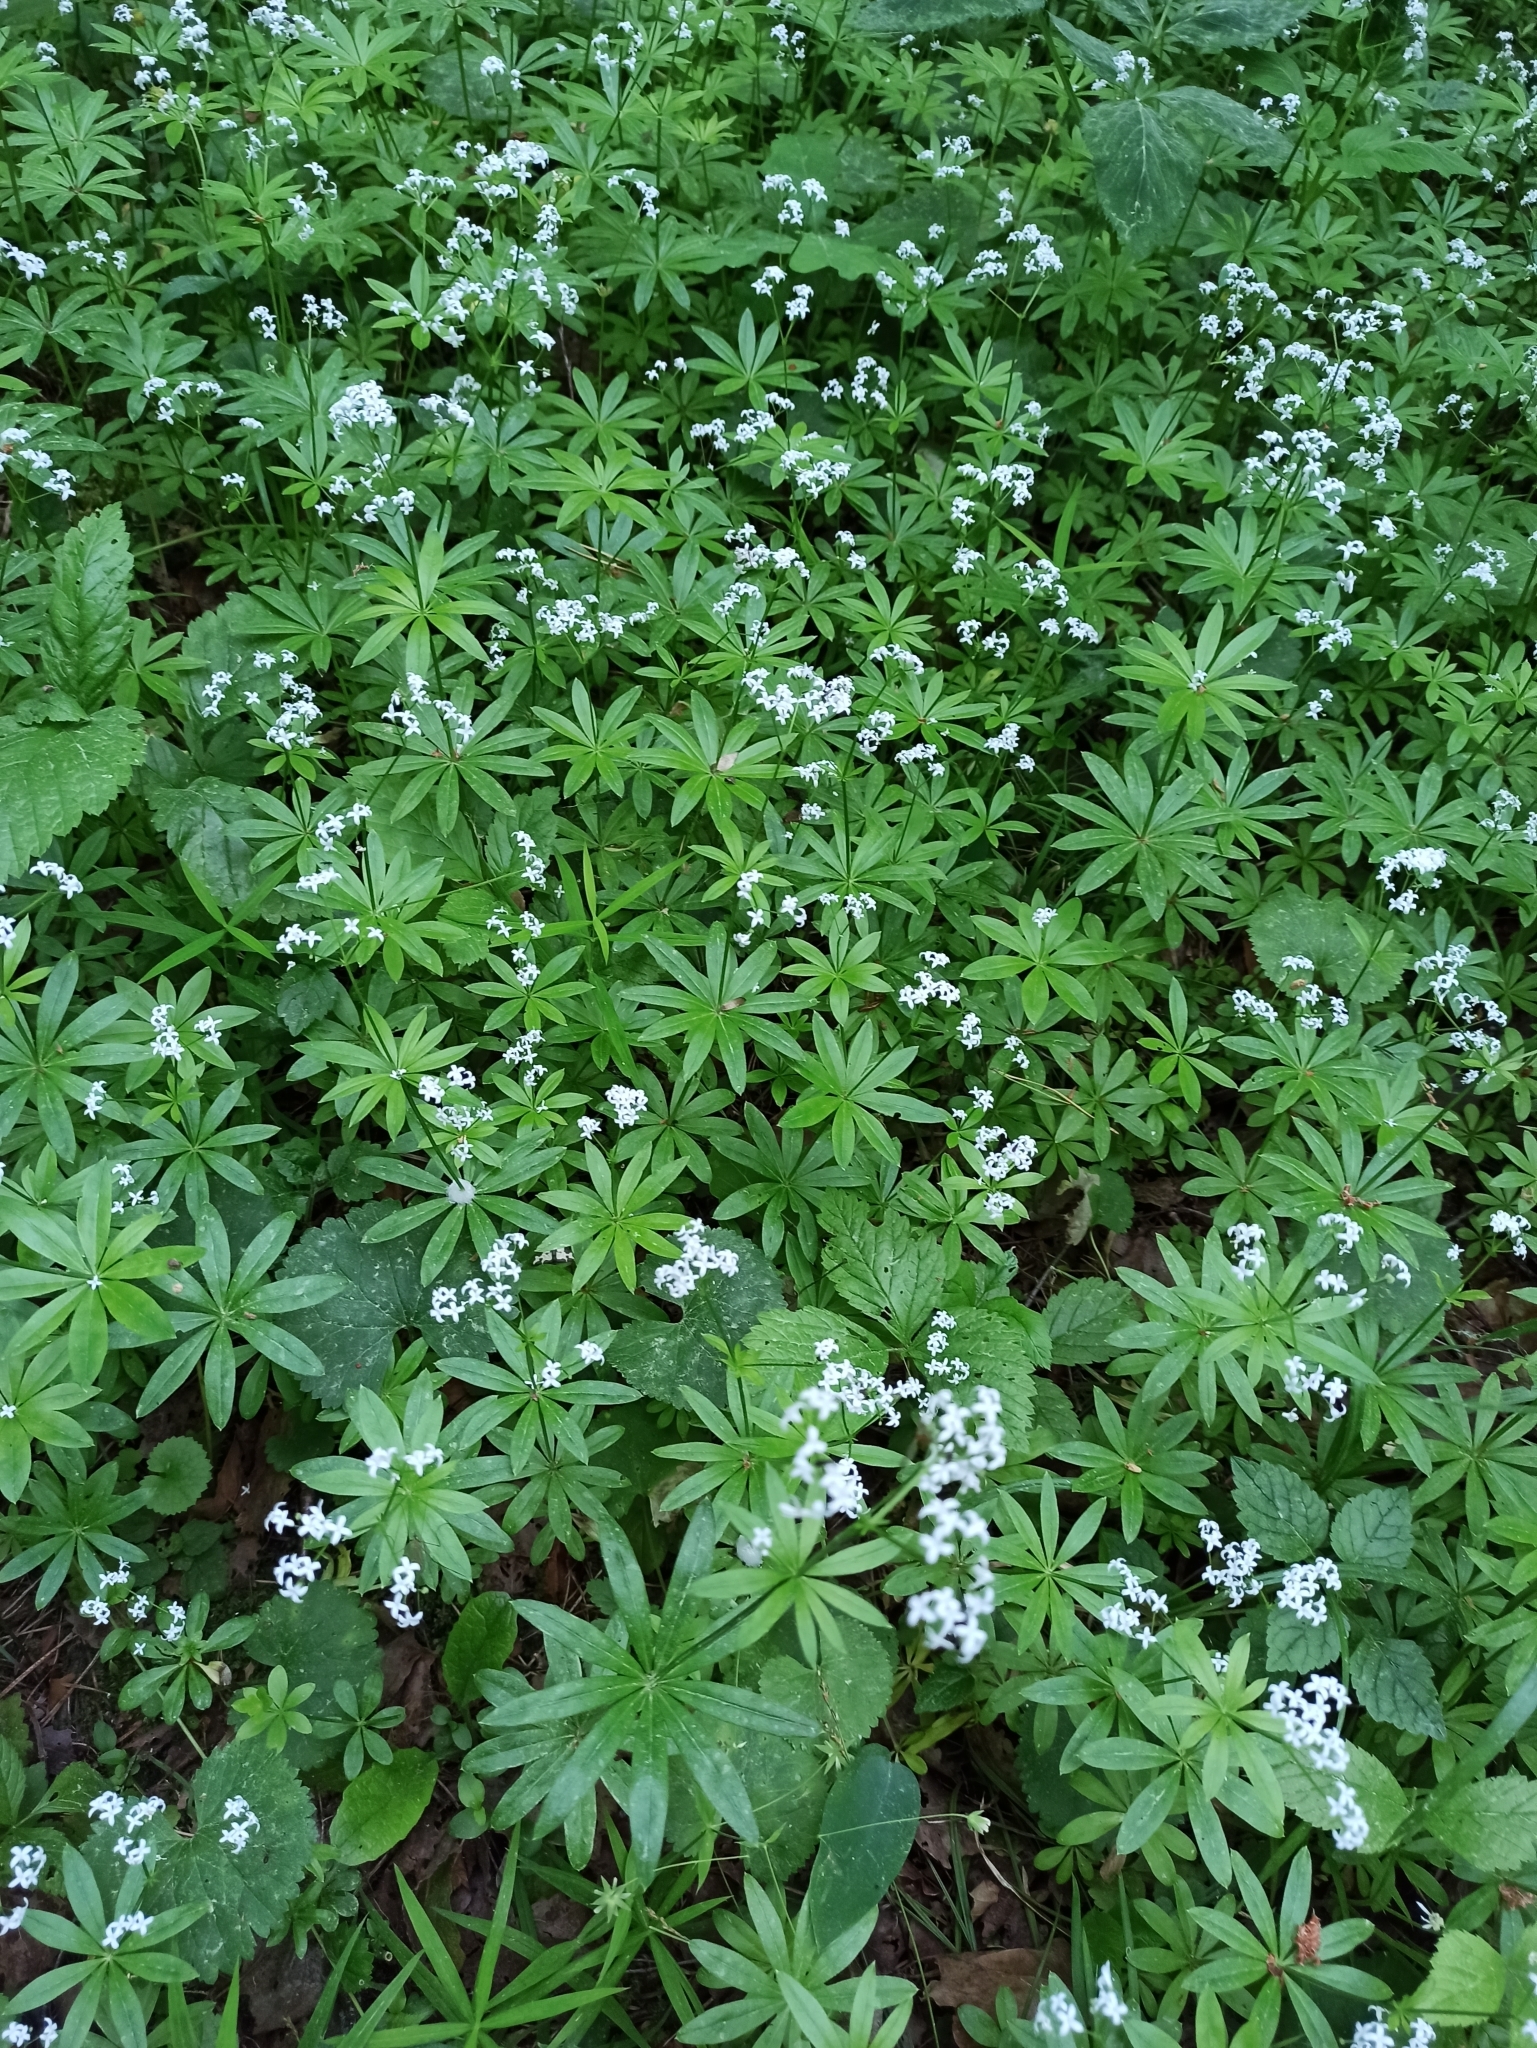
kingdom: Plantae
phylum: Tracheophyta
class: Magnoliopsida
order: Gentianales
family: Rubiaceae
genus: Galium
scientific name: Galium odoratum
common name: Sweet woodruff
